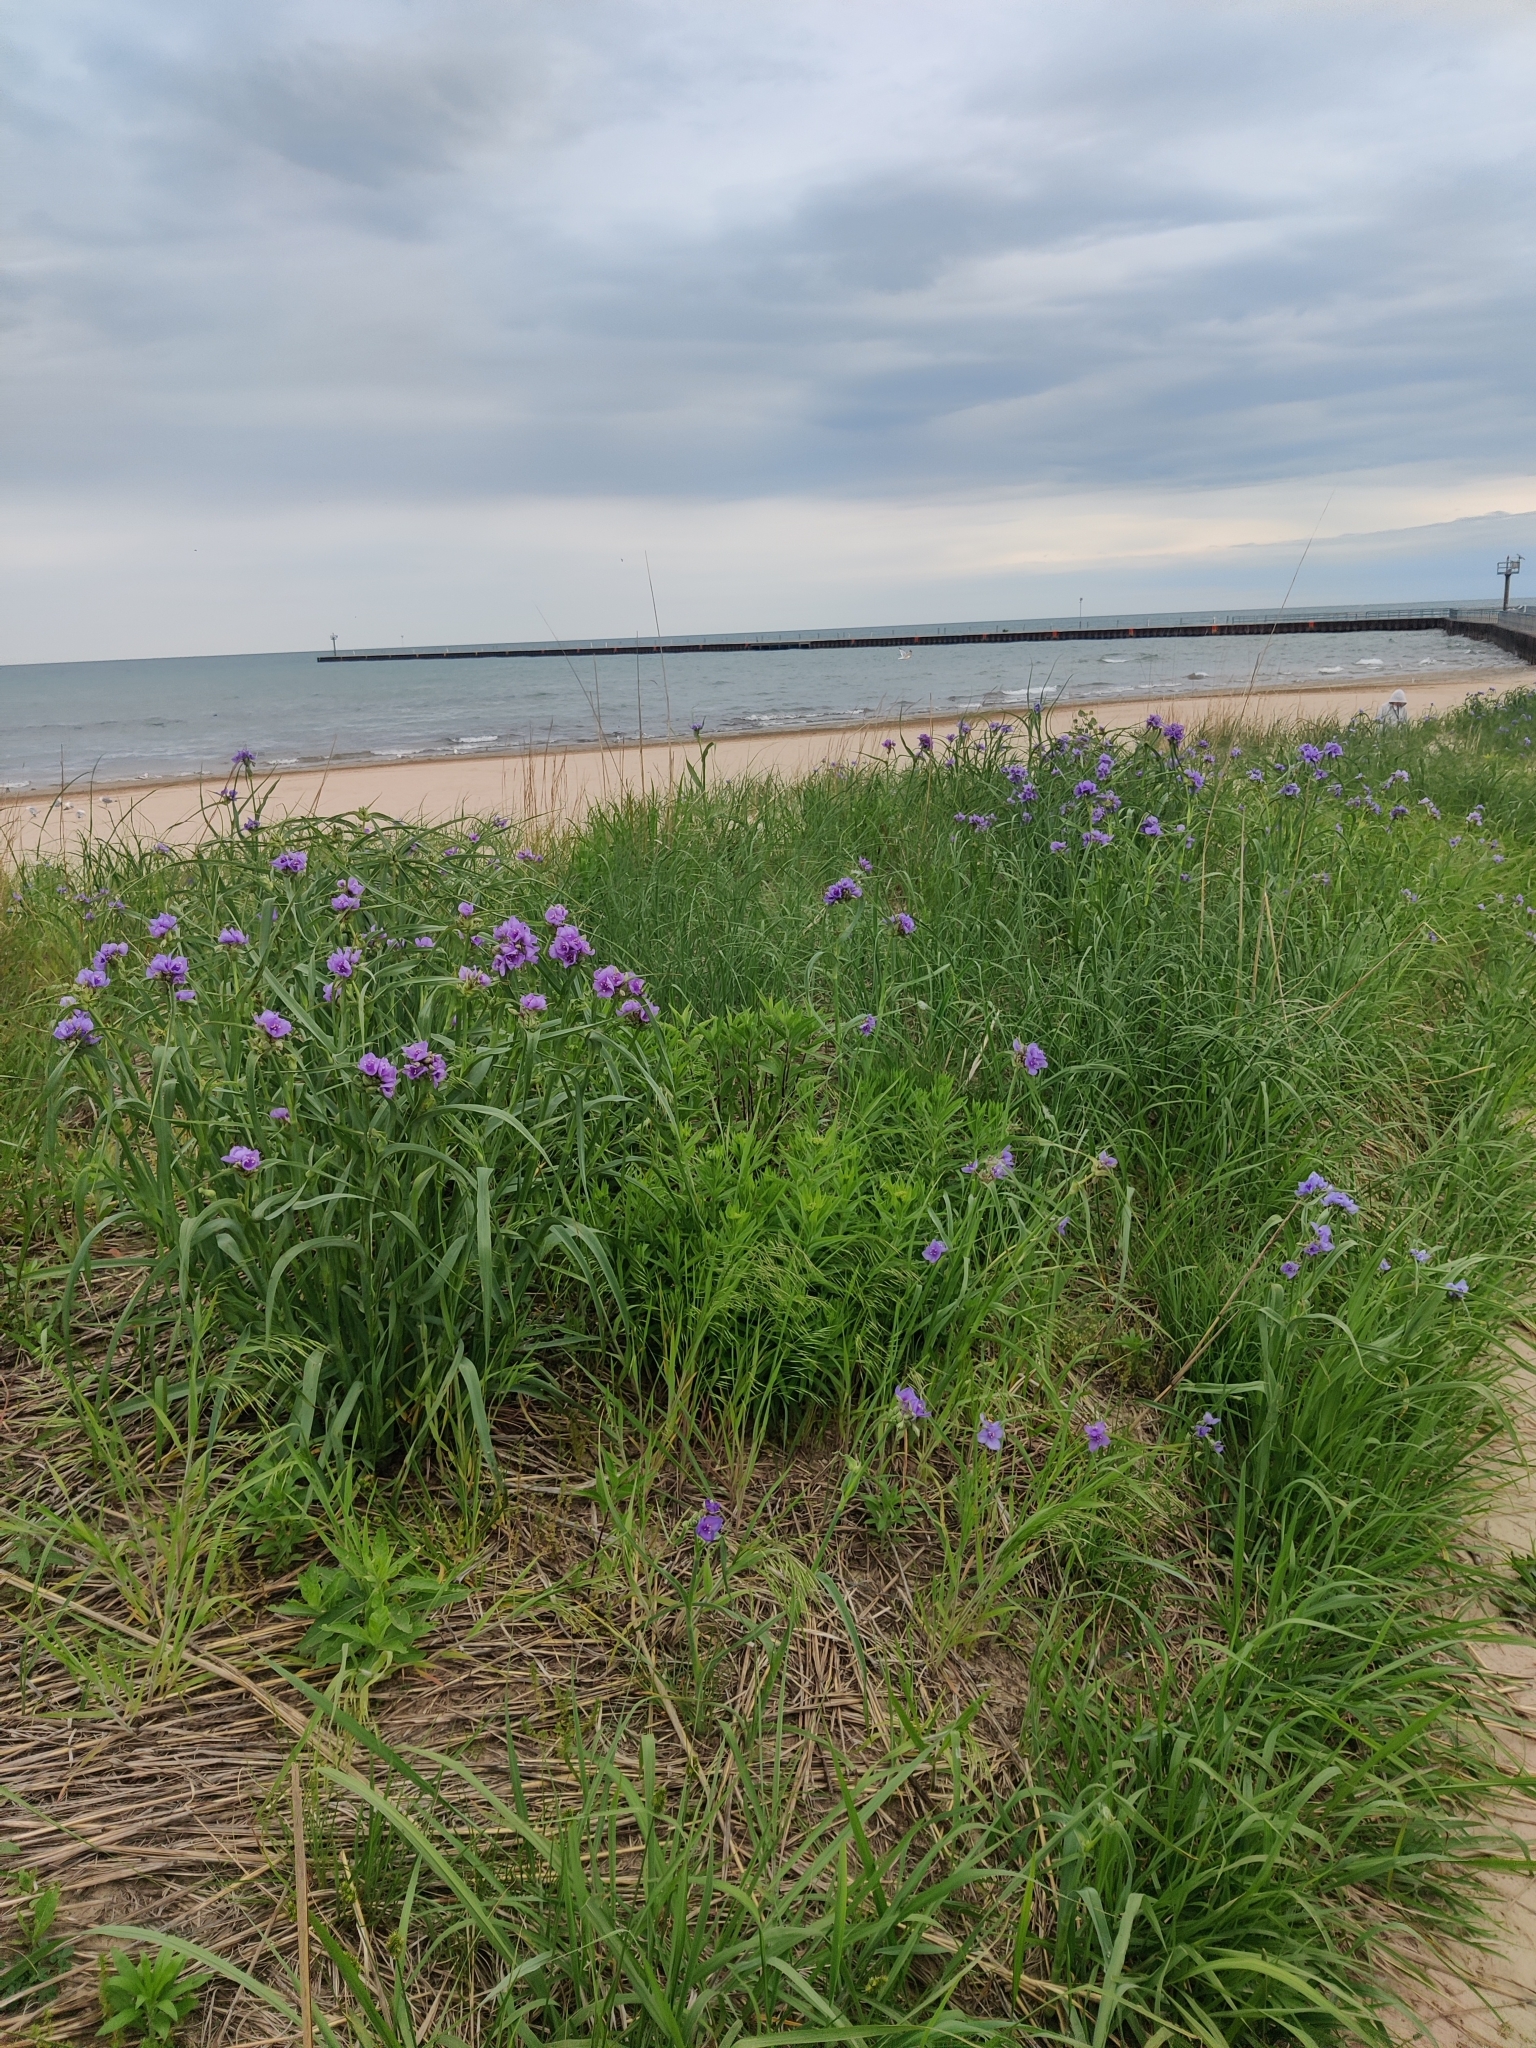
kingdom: Plantae
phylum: Tracheophyta
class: Magnoliopsida
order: Gentianales
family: Apocynaceae
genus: Asclepias
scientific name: Asclepias tuberosa
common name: Butterfly milkweed
